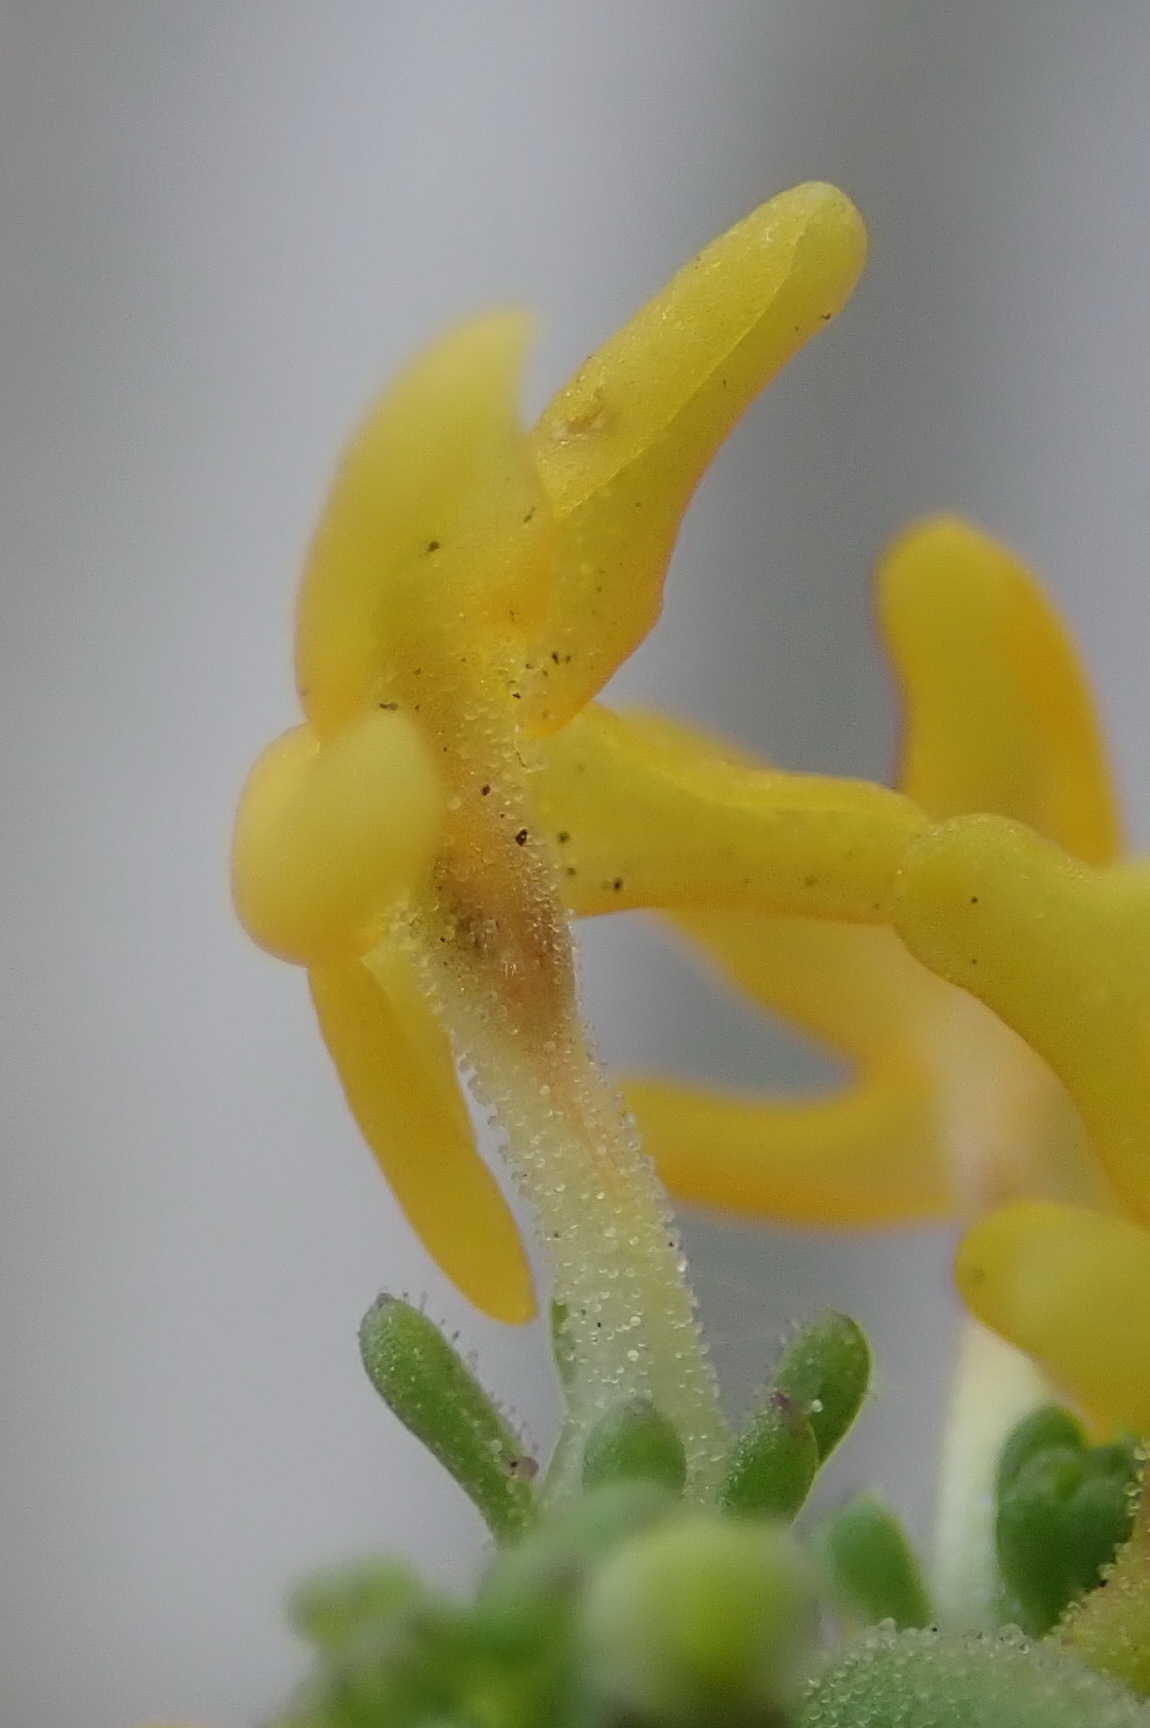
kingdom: Plantae
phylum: Tracheophyta
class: Magnoliopsida
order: Lamiales
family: Scrophulariaceae
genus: Manulea
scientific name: Manulea cheiranthus
